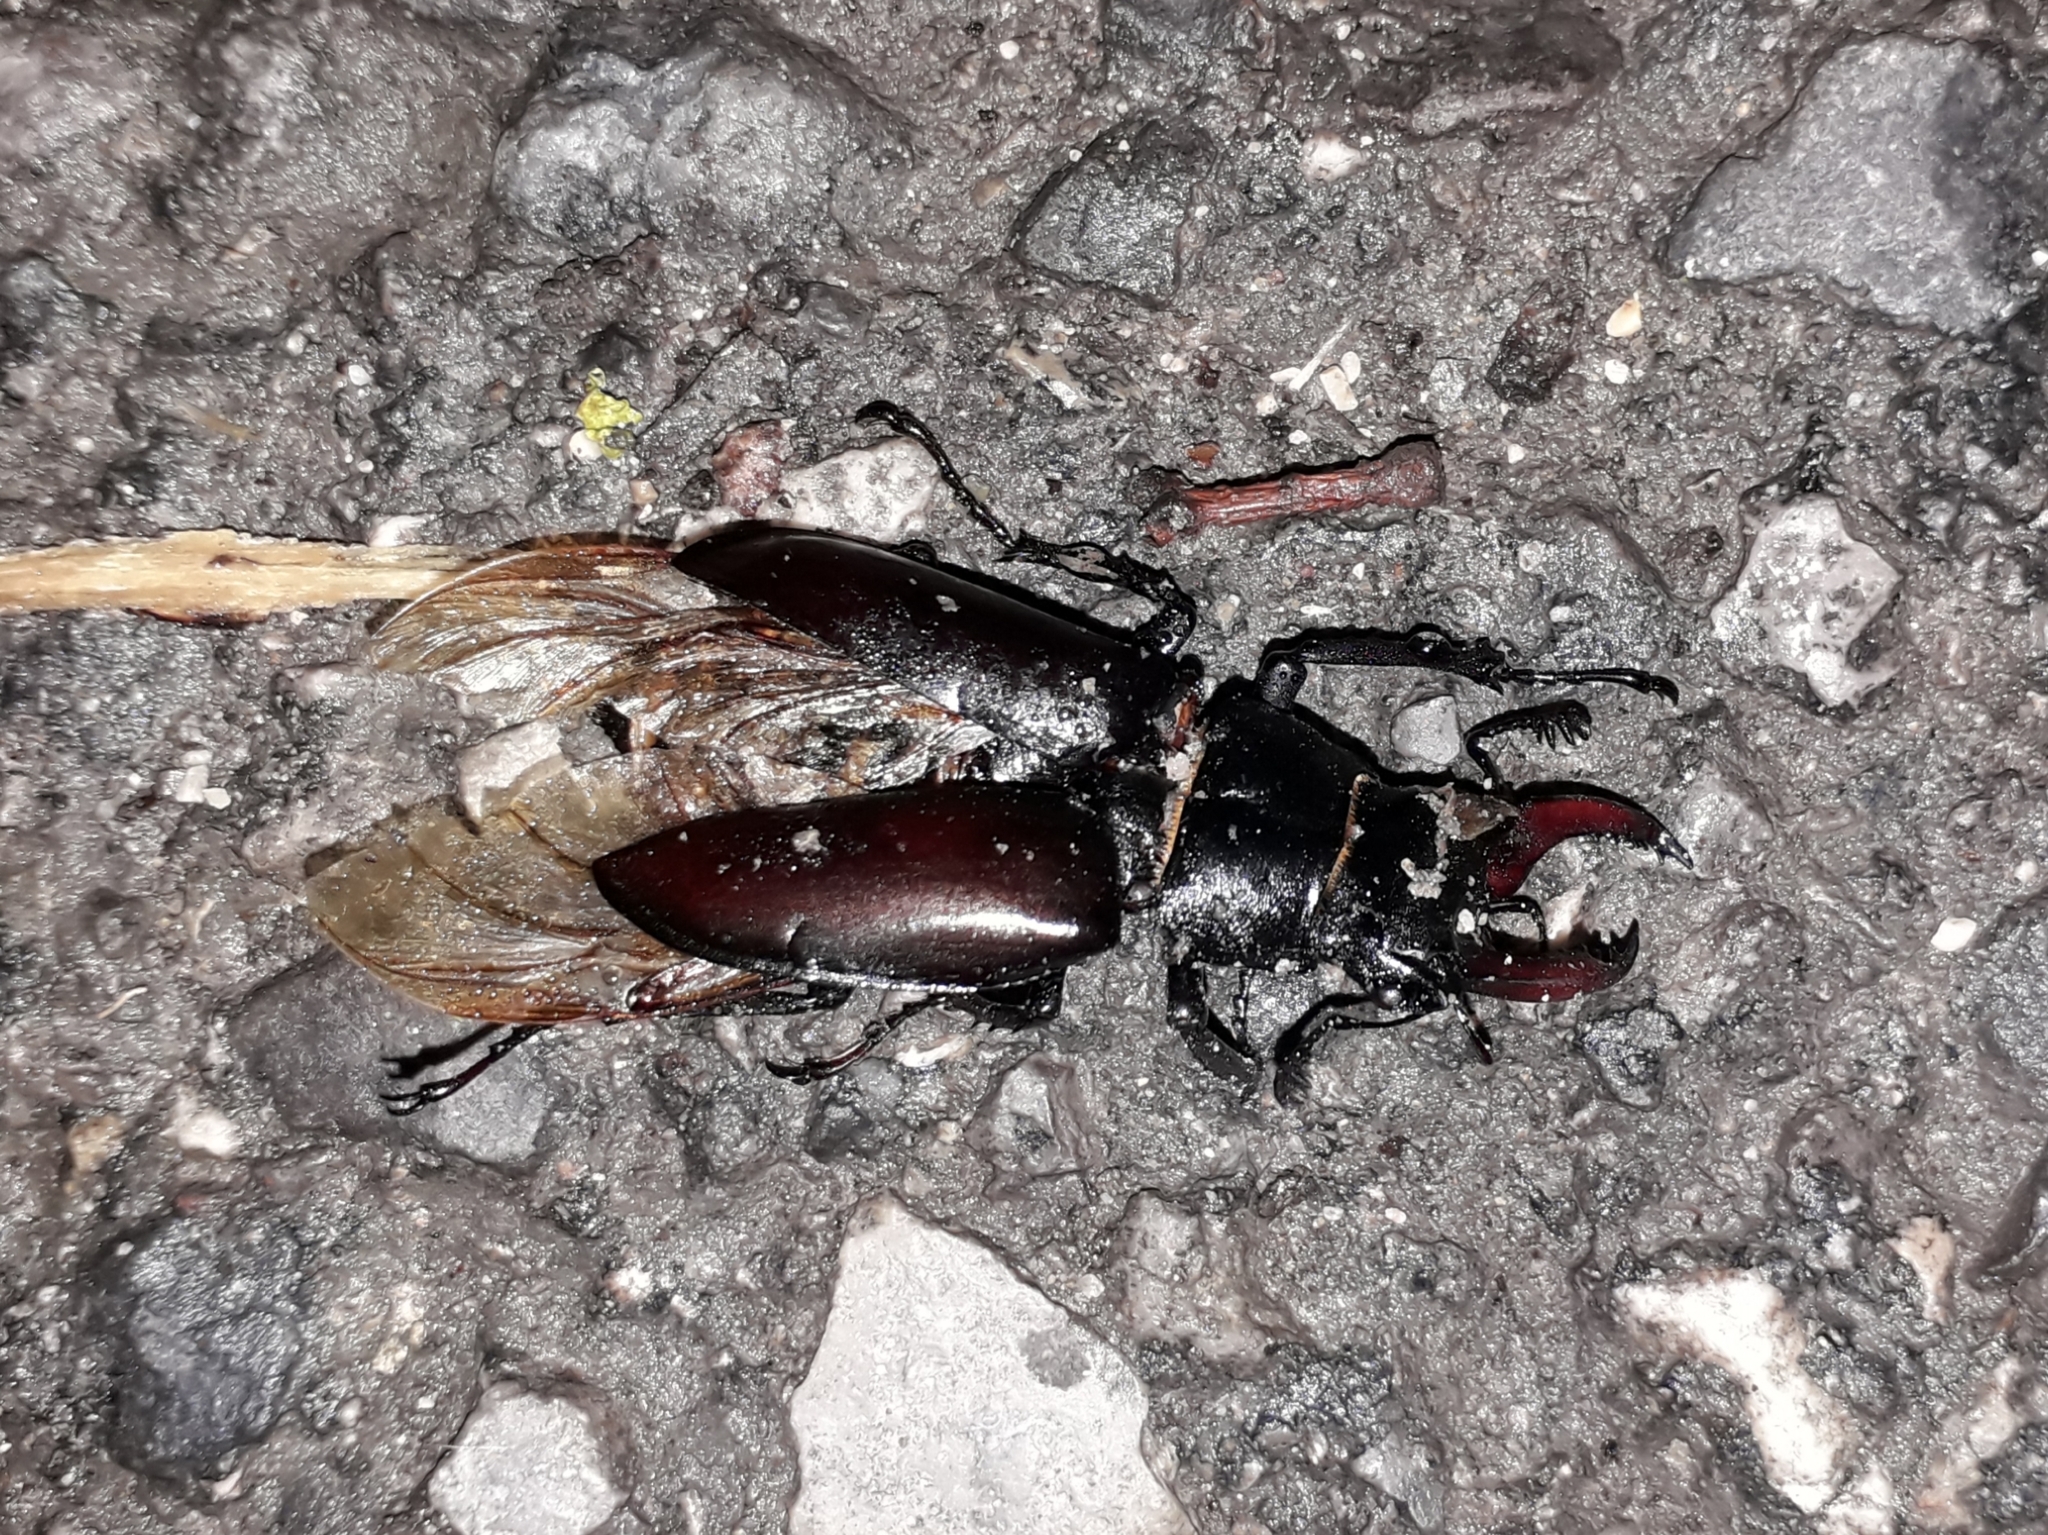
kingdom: Animalia
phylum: Arthropoda
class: Insecta
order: Coleoptera
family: Lucanidae
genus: Lucanus
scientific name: Lucanus cervus
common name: Stag beetle
